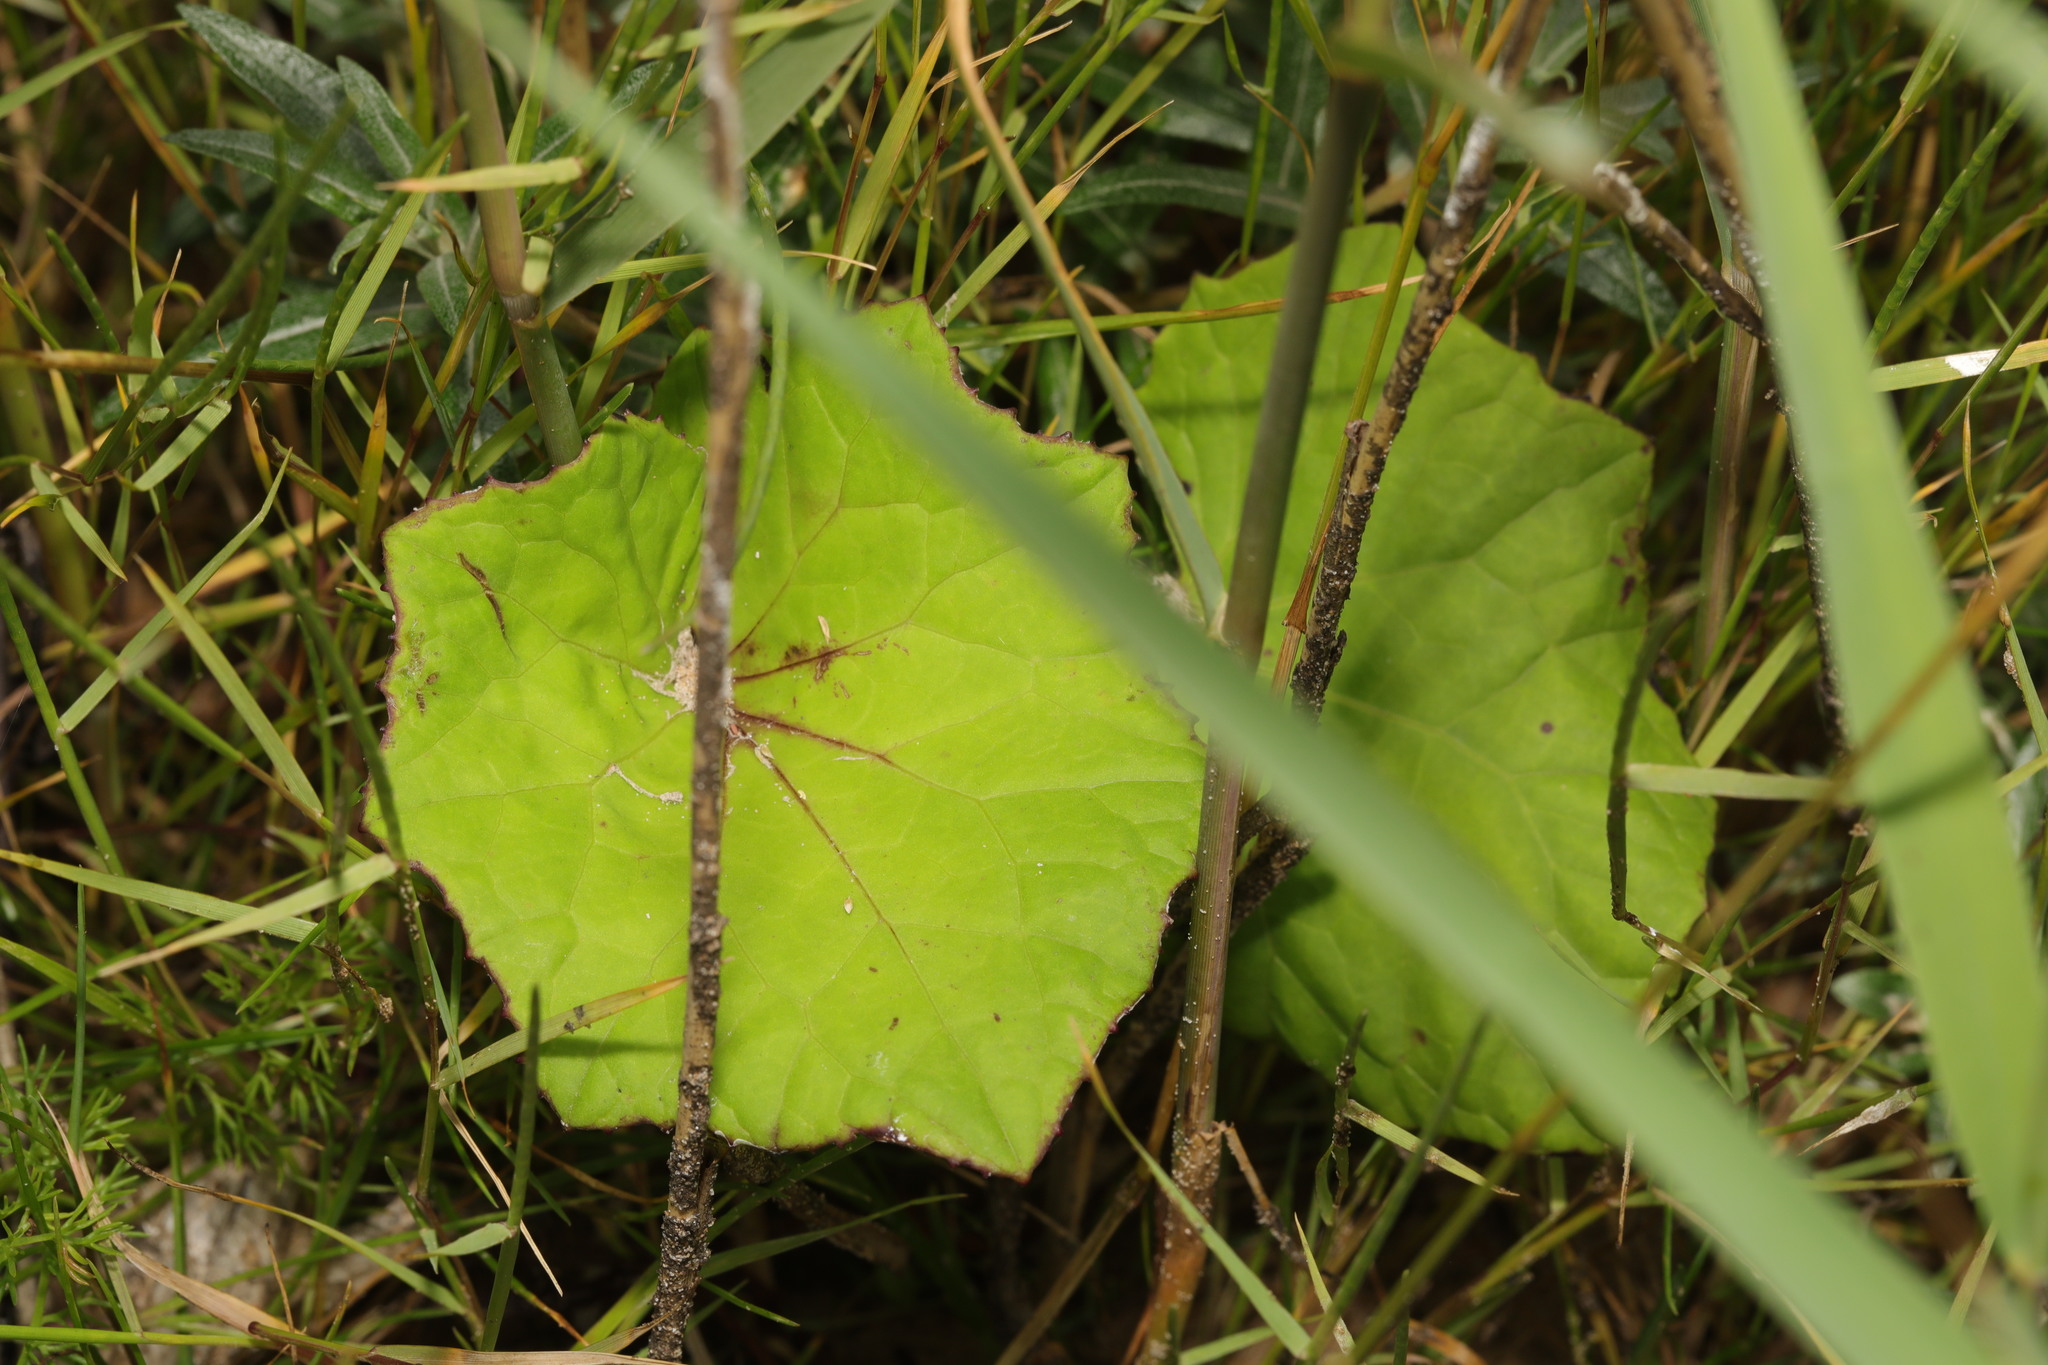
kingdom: Plantae
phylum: Tracheophyta
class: Magnoliopsida
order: Asterales
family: Asteraceae
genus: Tussilago
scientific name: Tussilago farfara
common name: Coltsfoot
